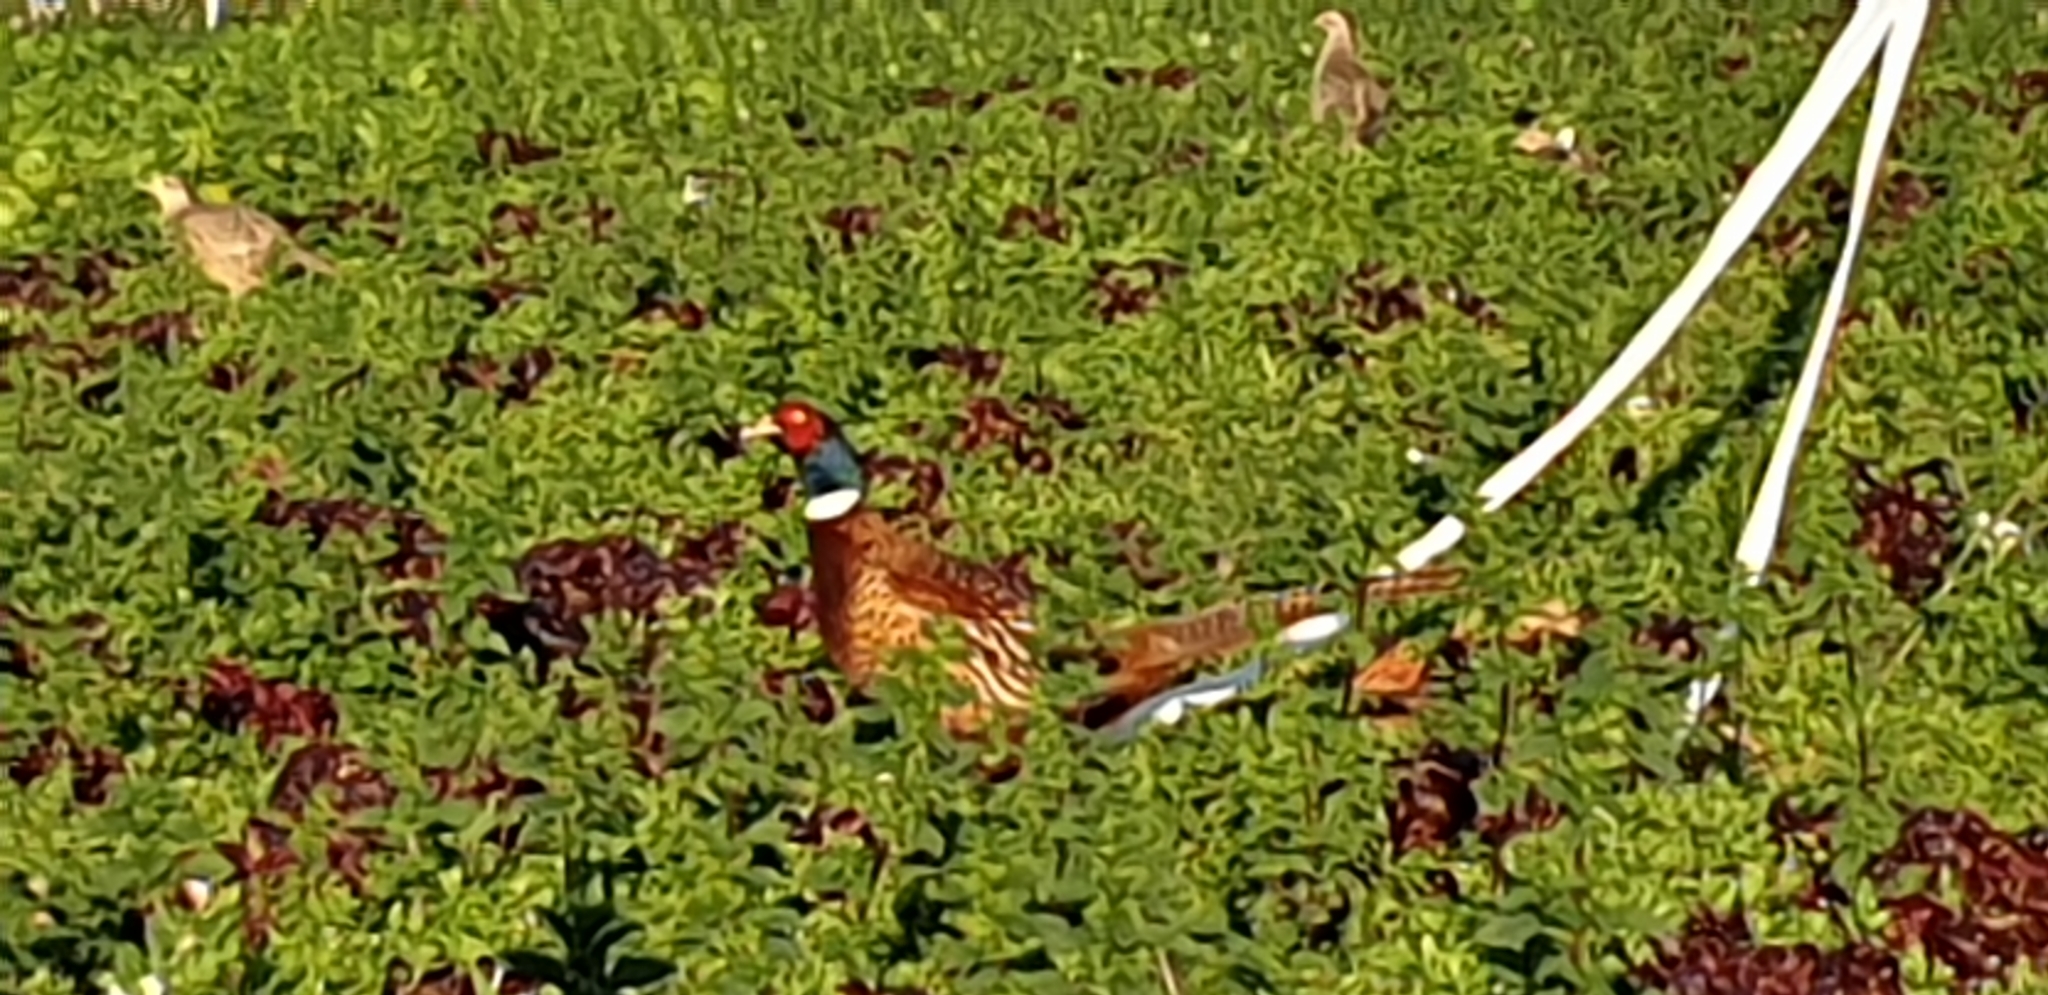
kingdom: Animalia
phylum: Chordata
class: Aves
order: Galliformes
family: Phasianidae
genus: Phasianus
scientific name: Phasianus colchicus
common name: Common pheasant
